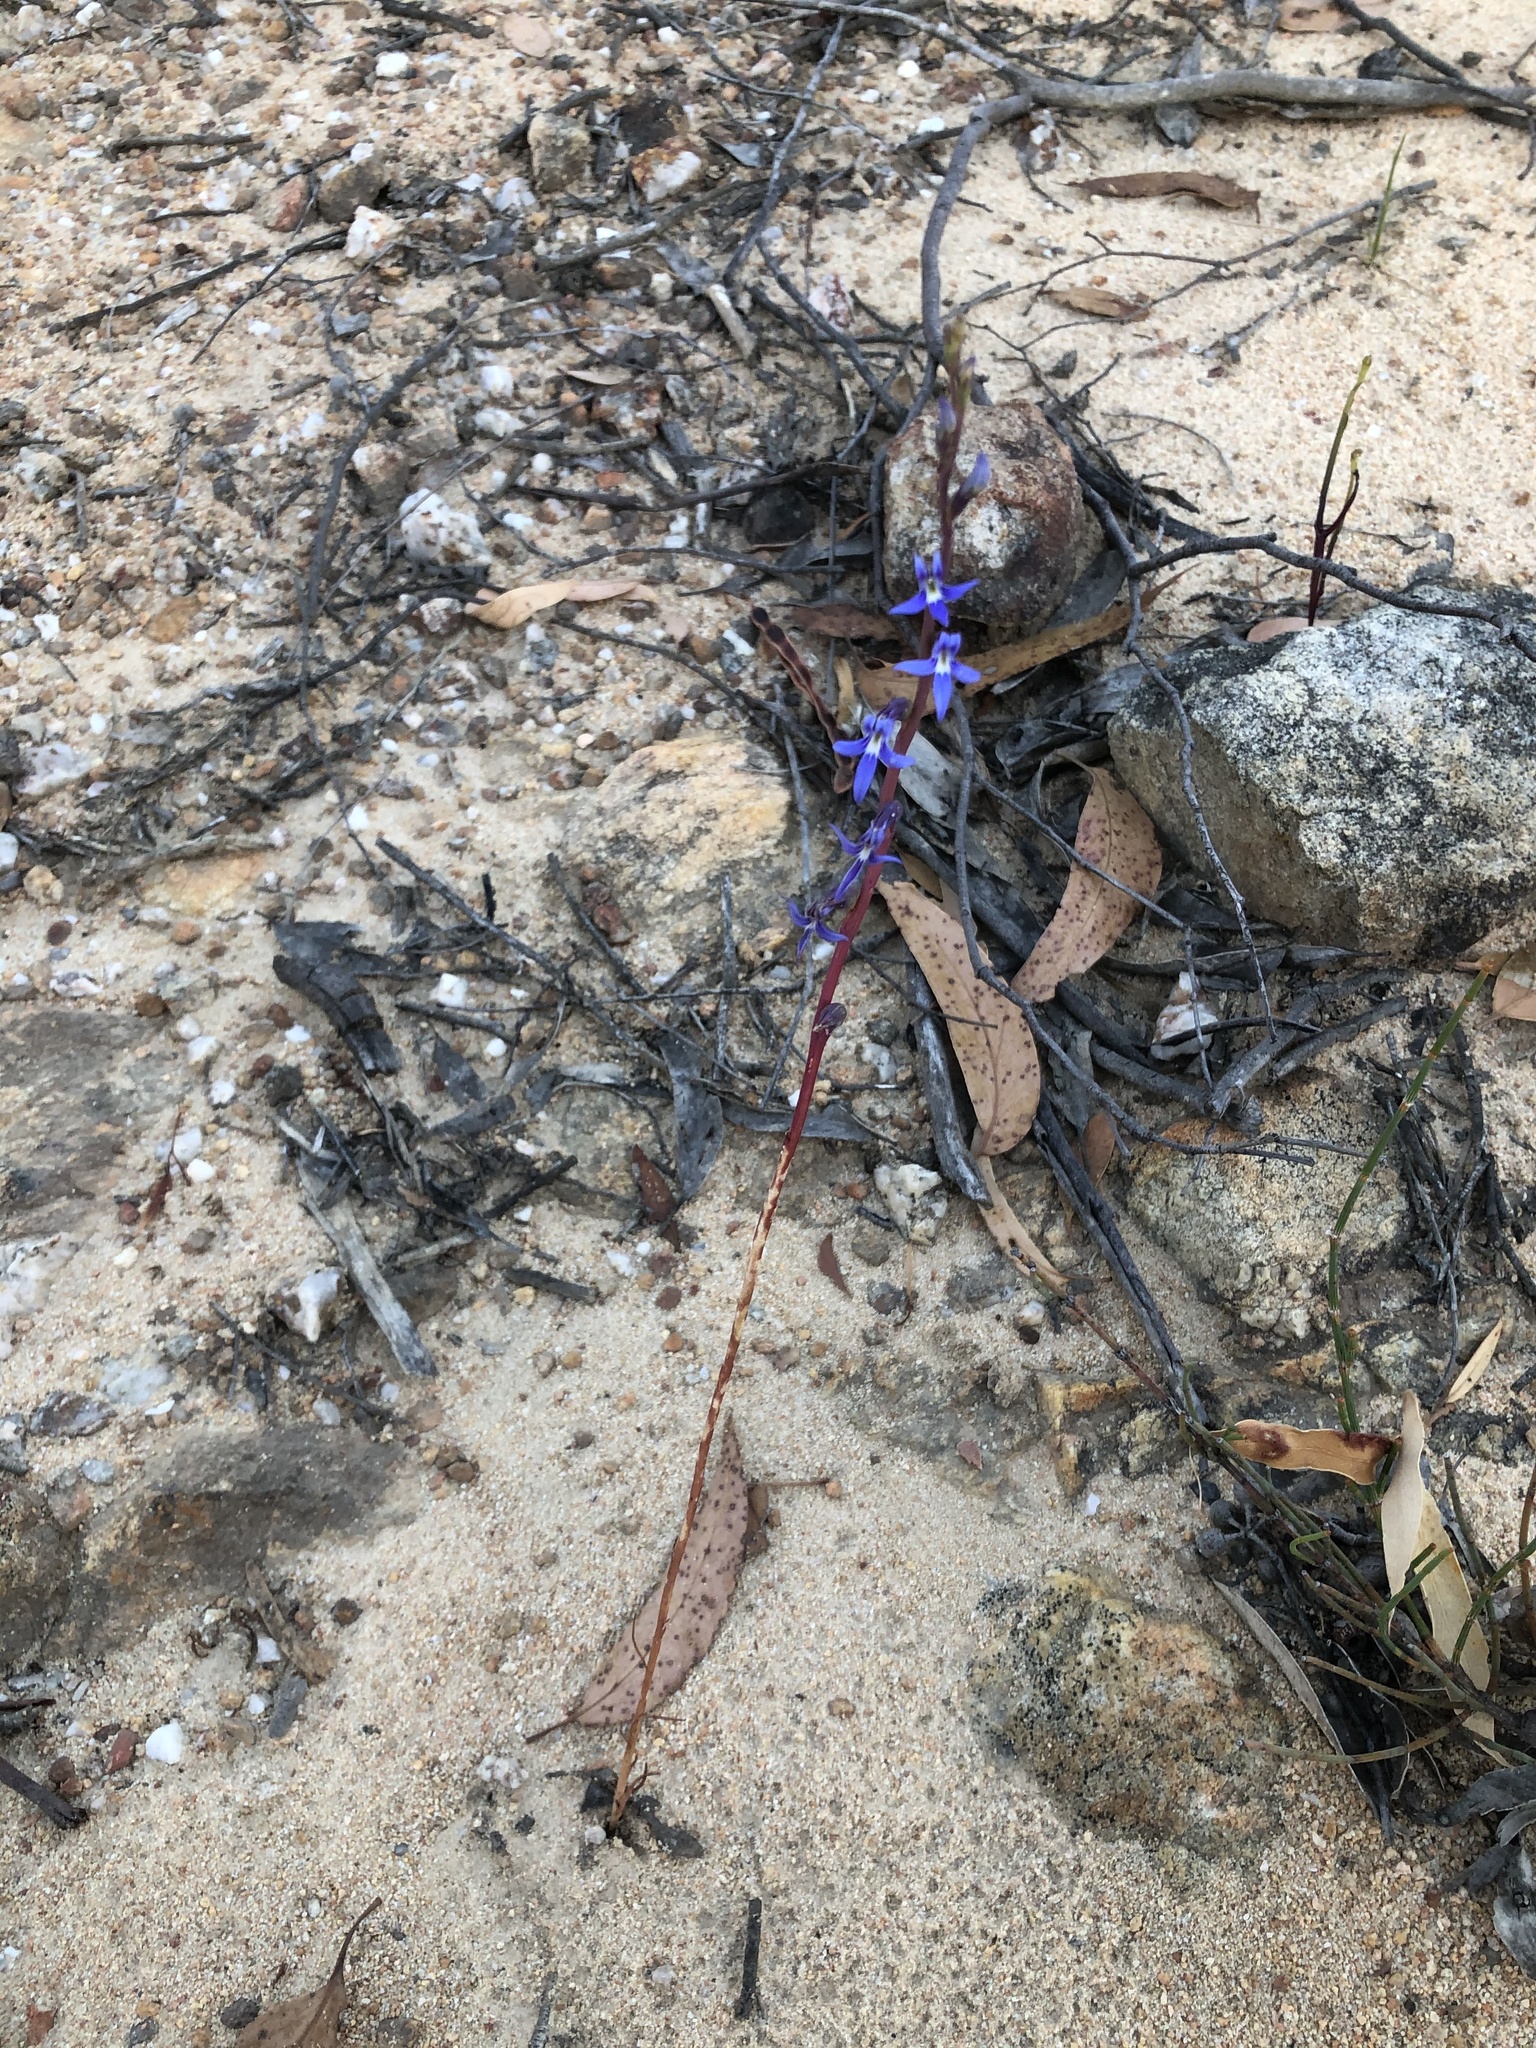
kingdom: Plantae
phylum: Tracheophyta
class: Magnoliopsida
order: Asterales
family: Campanulaceae
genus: Lobelia
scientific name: Lobelia gibbosa
